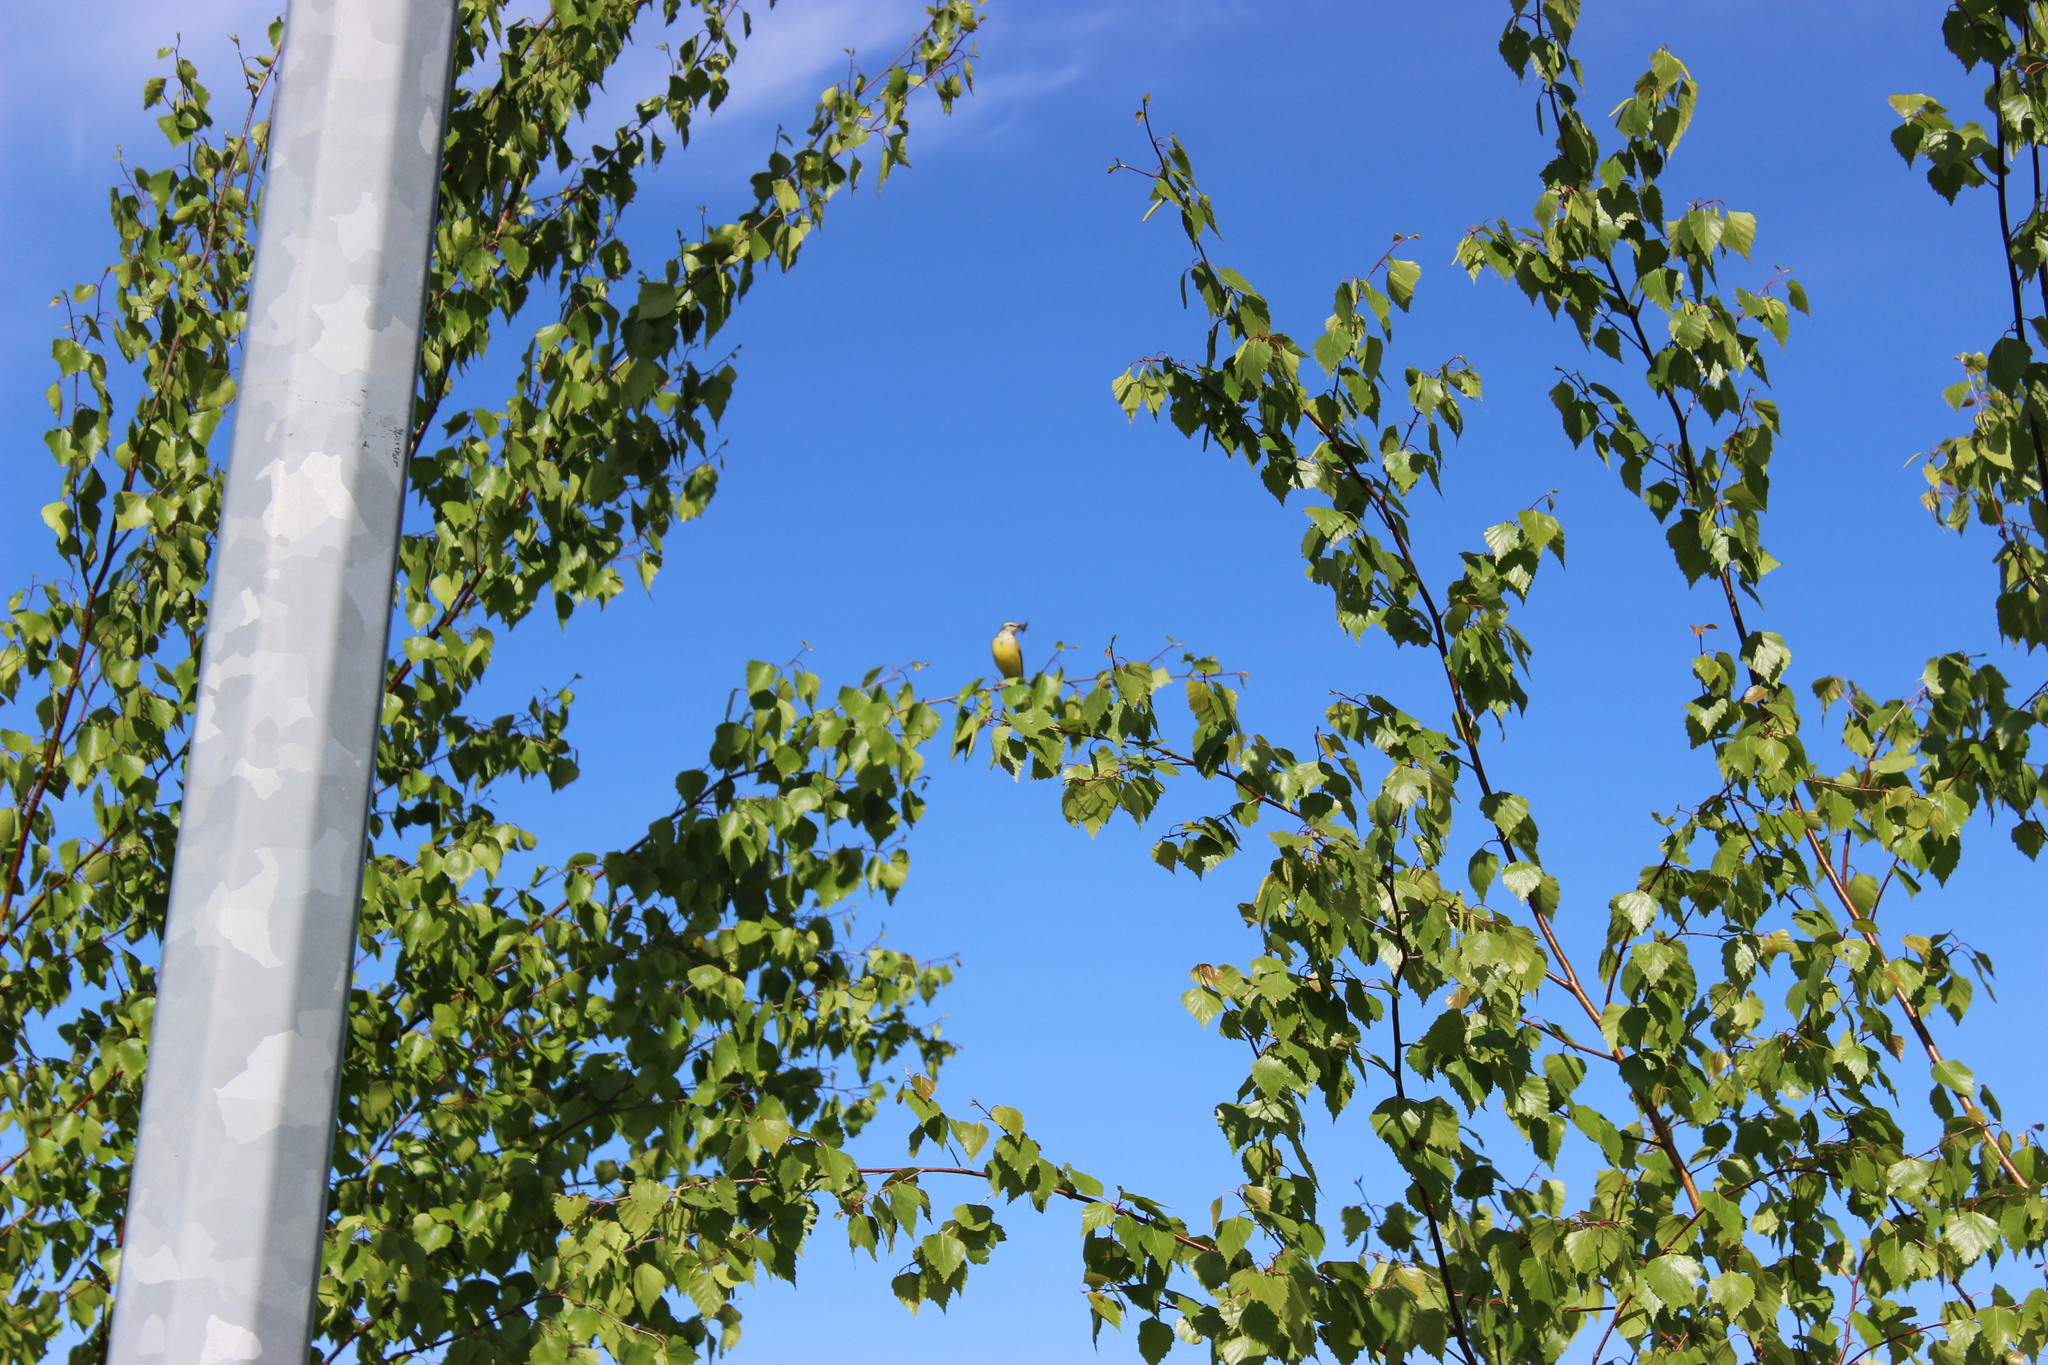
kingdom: Animalia
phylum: Chordata
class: Aves
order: Passeriformes
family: Motacillidae
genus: Motacilla
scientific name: Motacilla flava
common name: Western yellow wagtail
